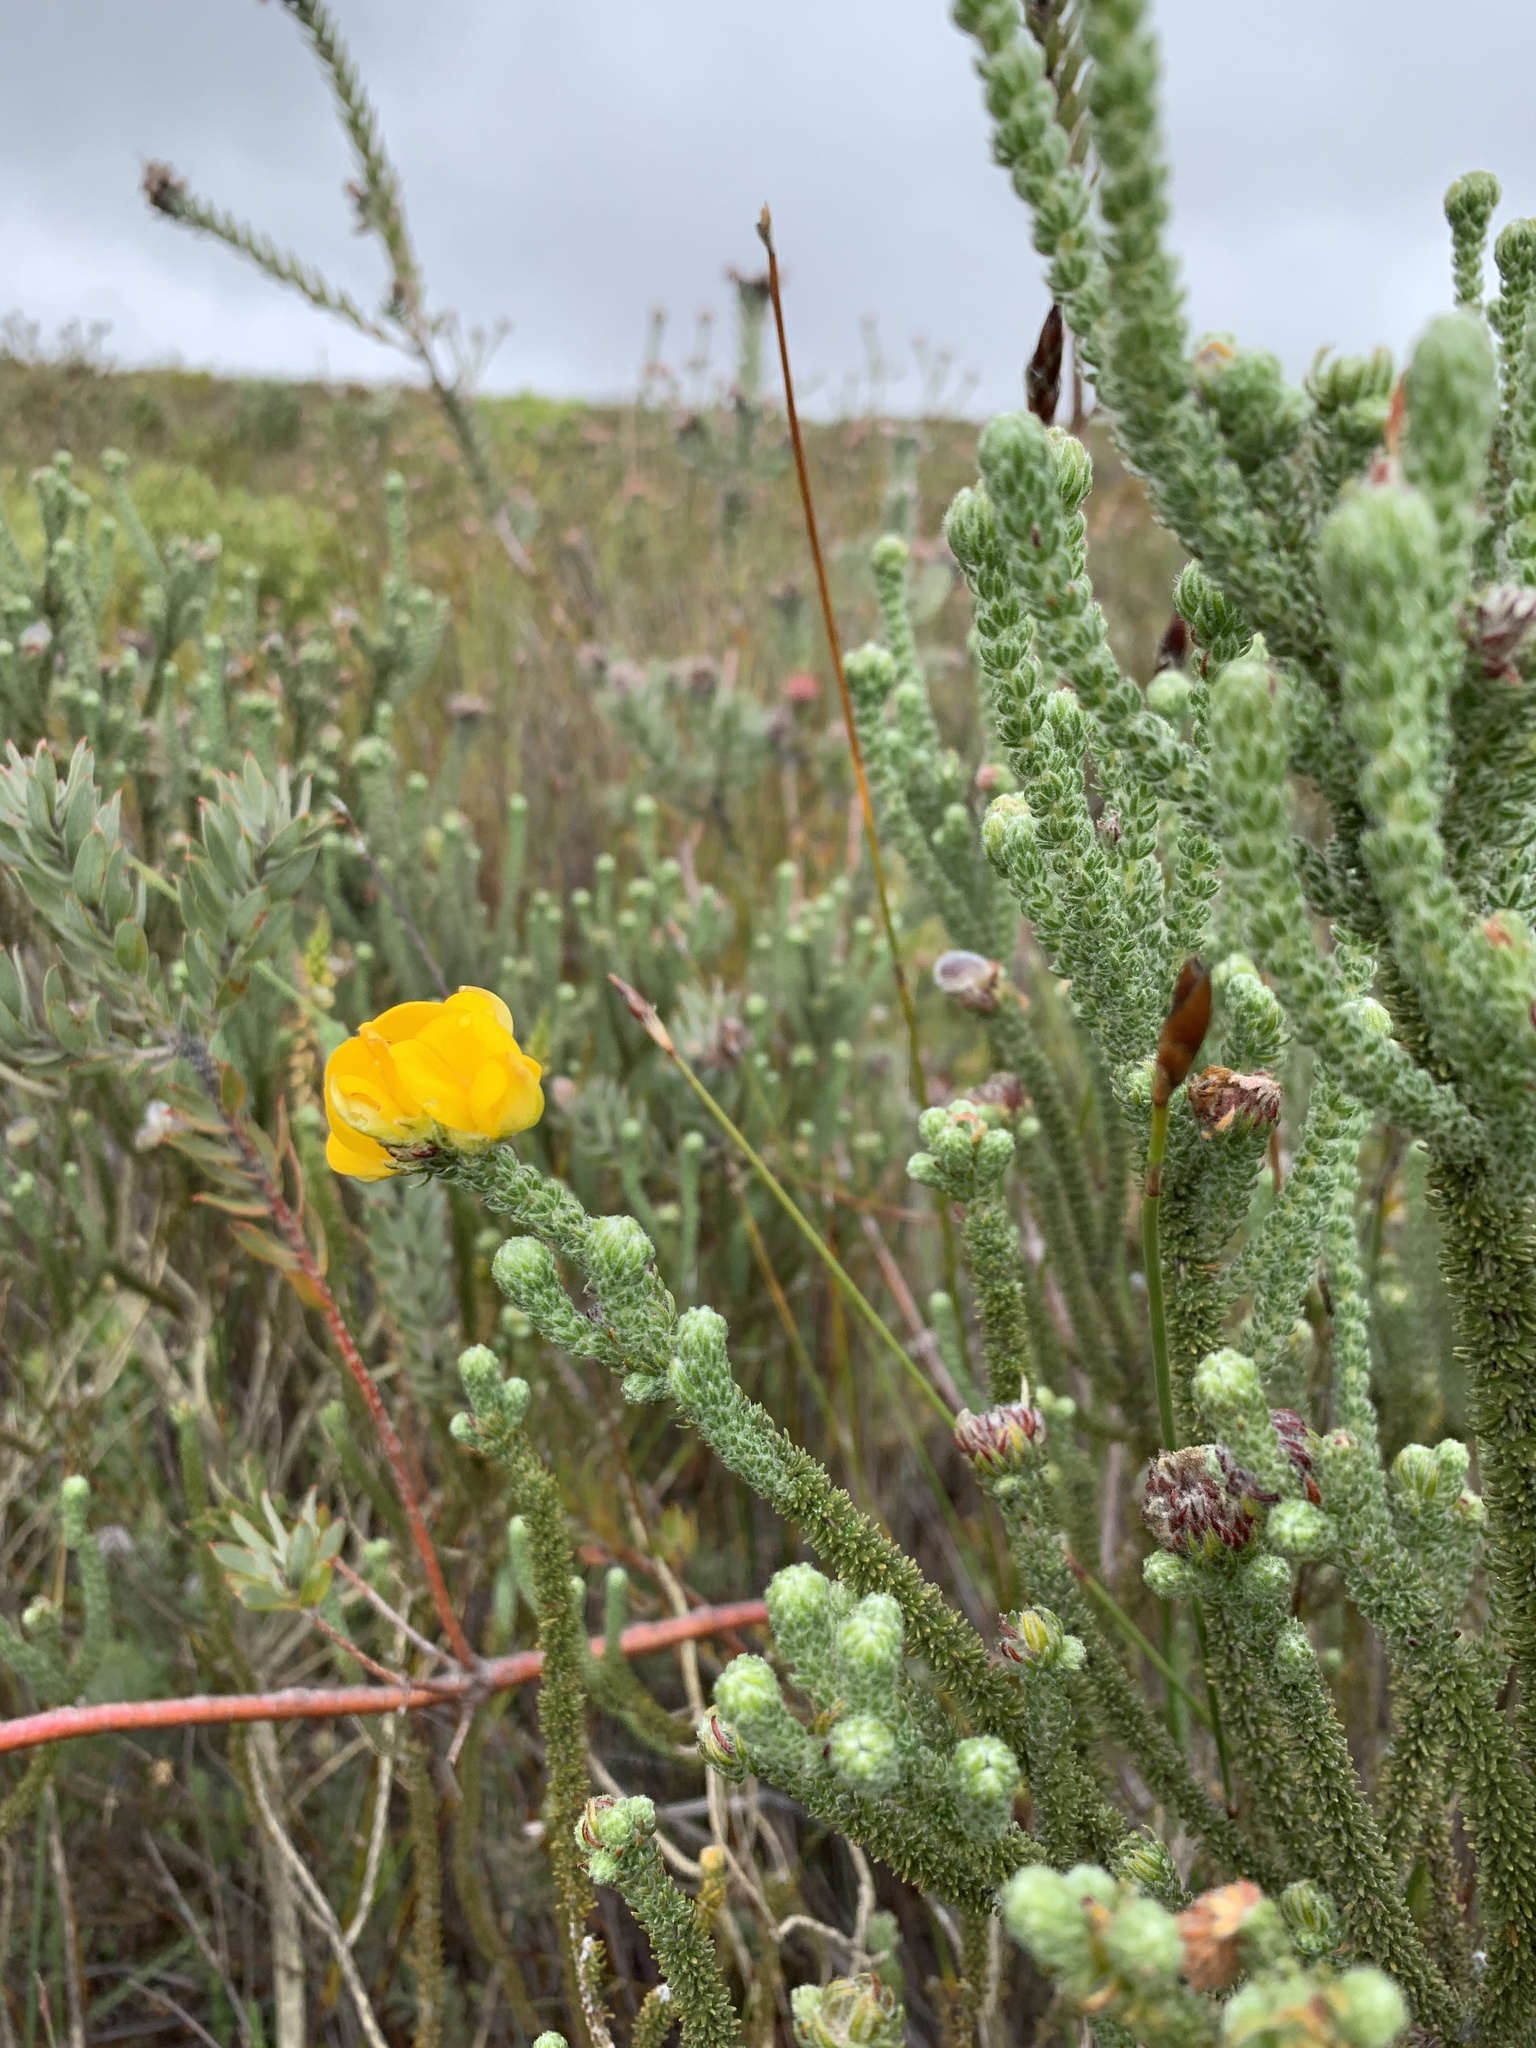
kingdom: Plantae
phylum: Tracheophyta
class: Magnoliopsida
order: Fabales
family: Fabaceae
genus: Aspalathus
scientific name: Aspalathus triquetra
